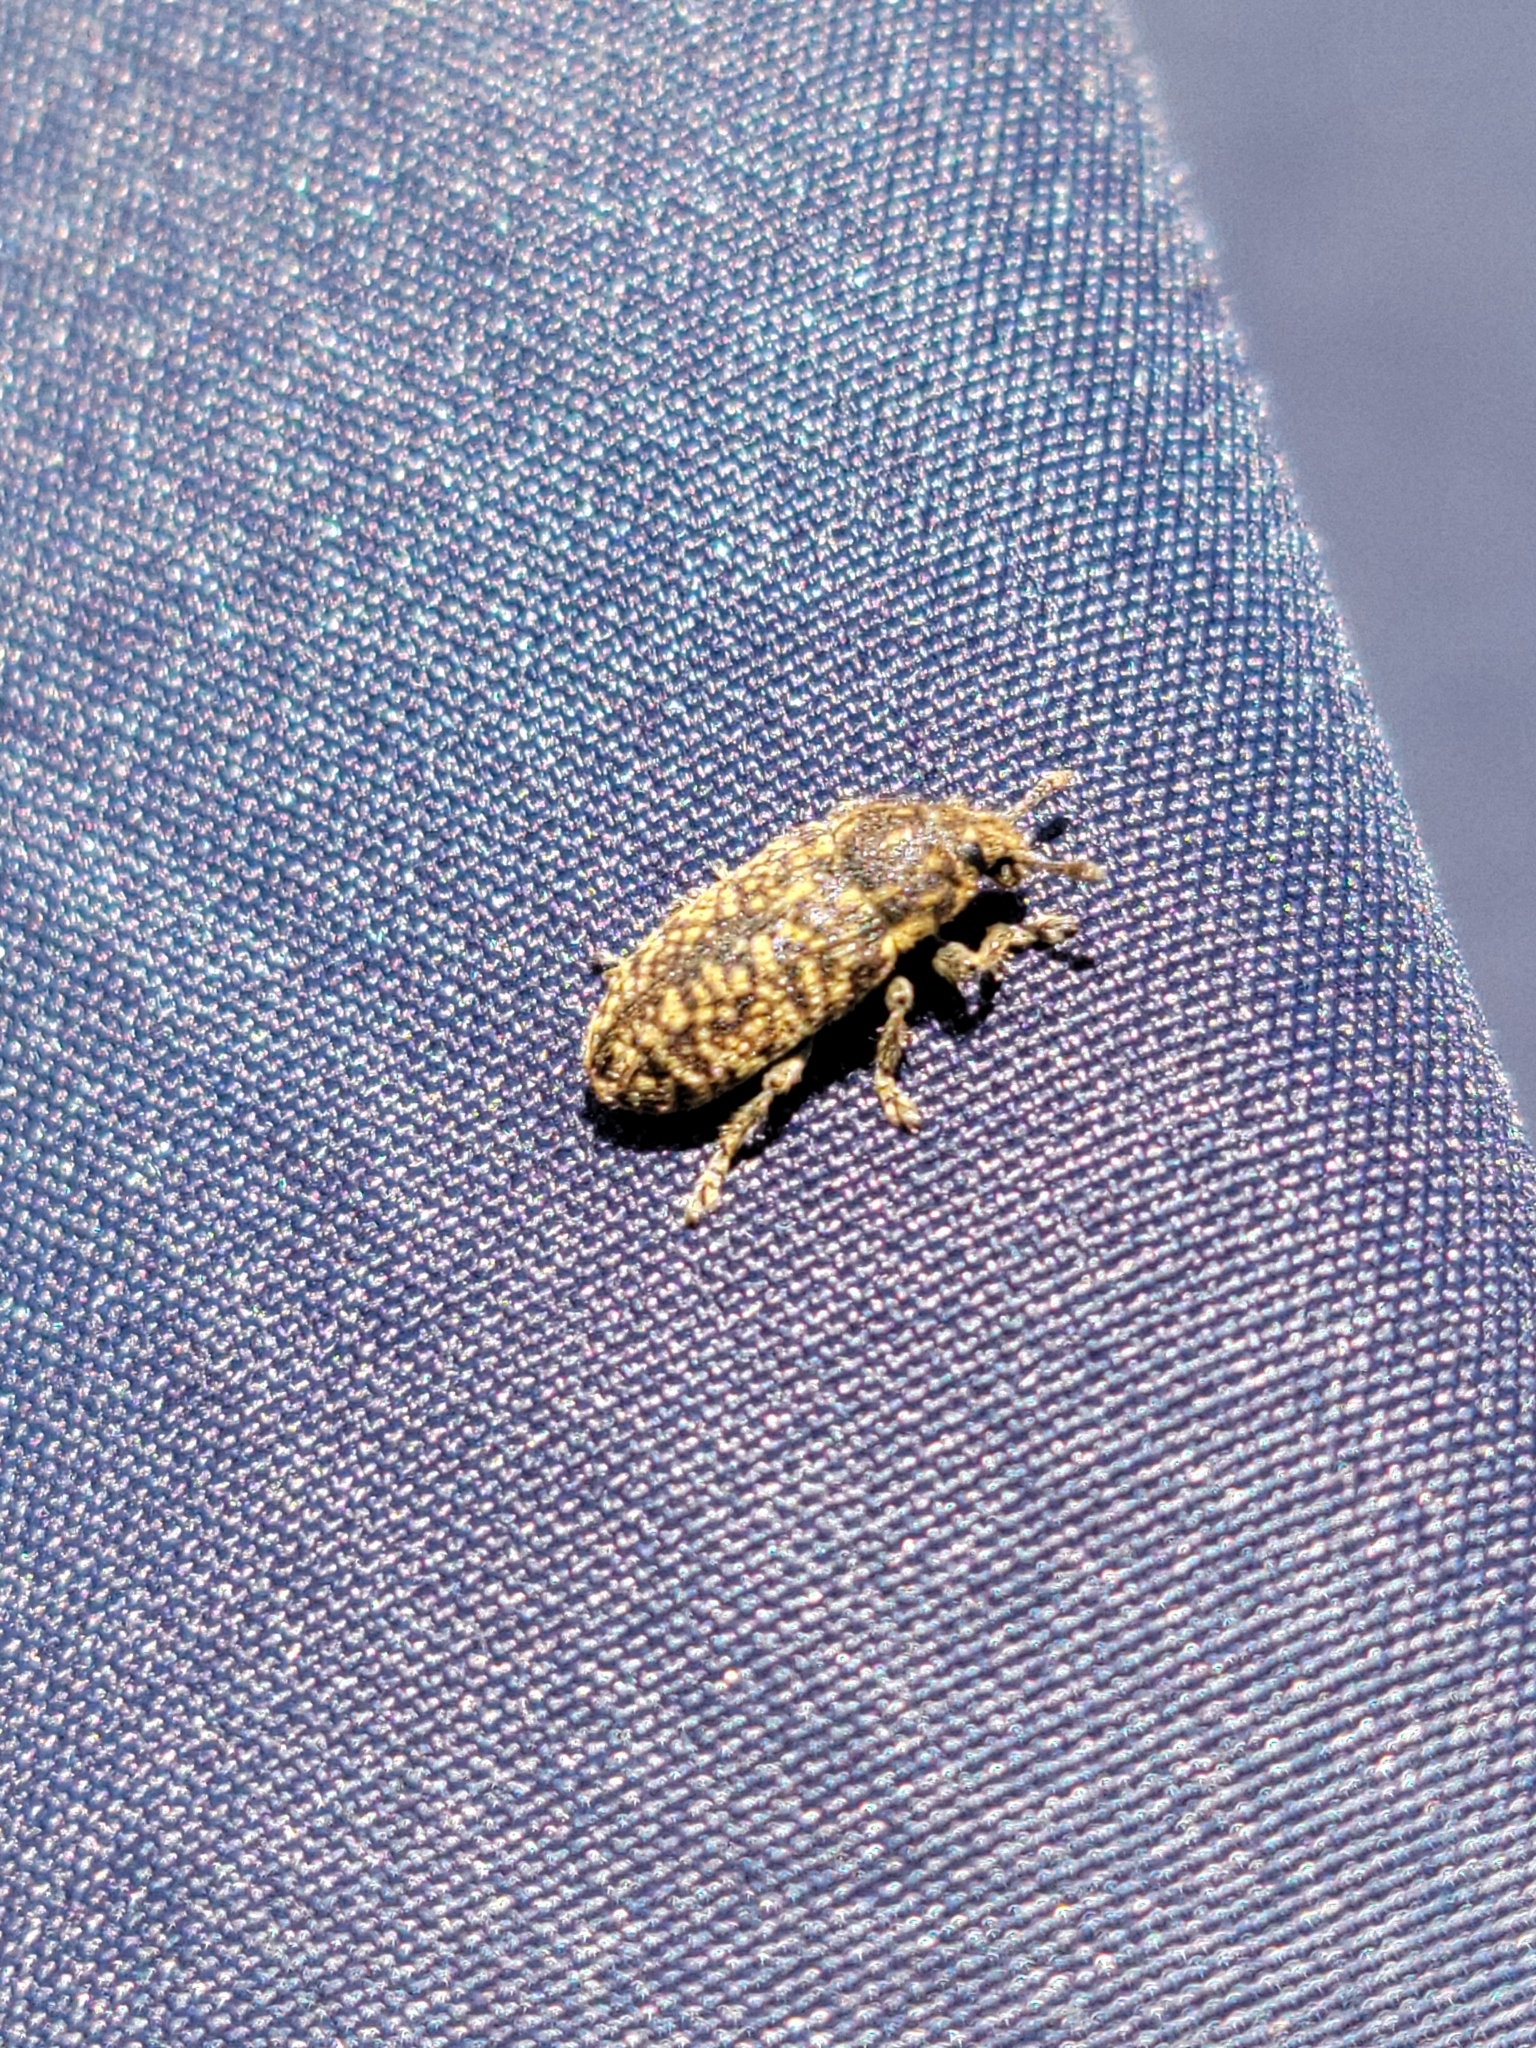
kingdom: Animalia
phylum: Arthropoda
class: Insecta
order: Coleoptera
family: Curculionidae
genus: Rhinocyllus
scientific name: Rhinocyllus conicus
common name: Weevil
